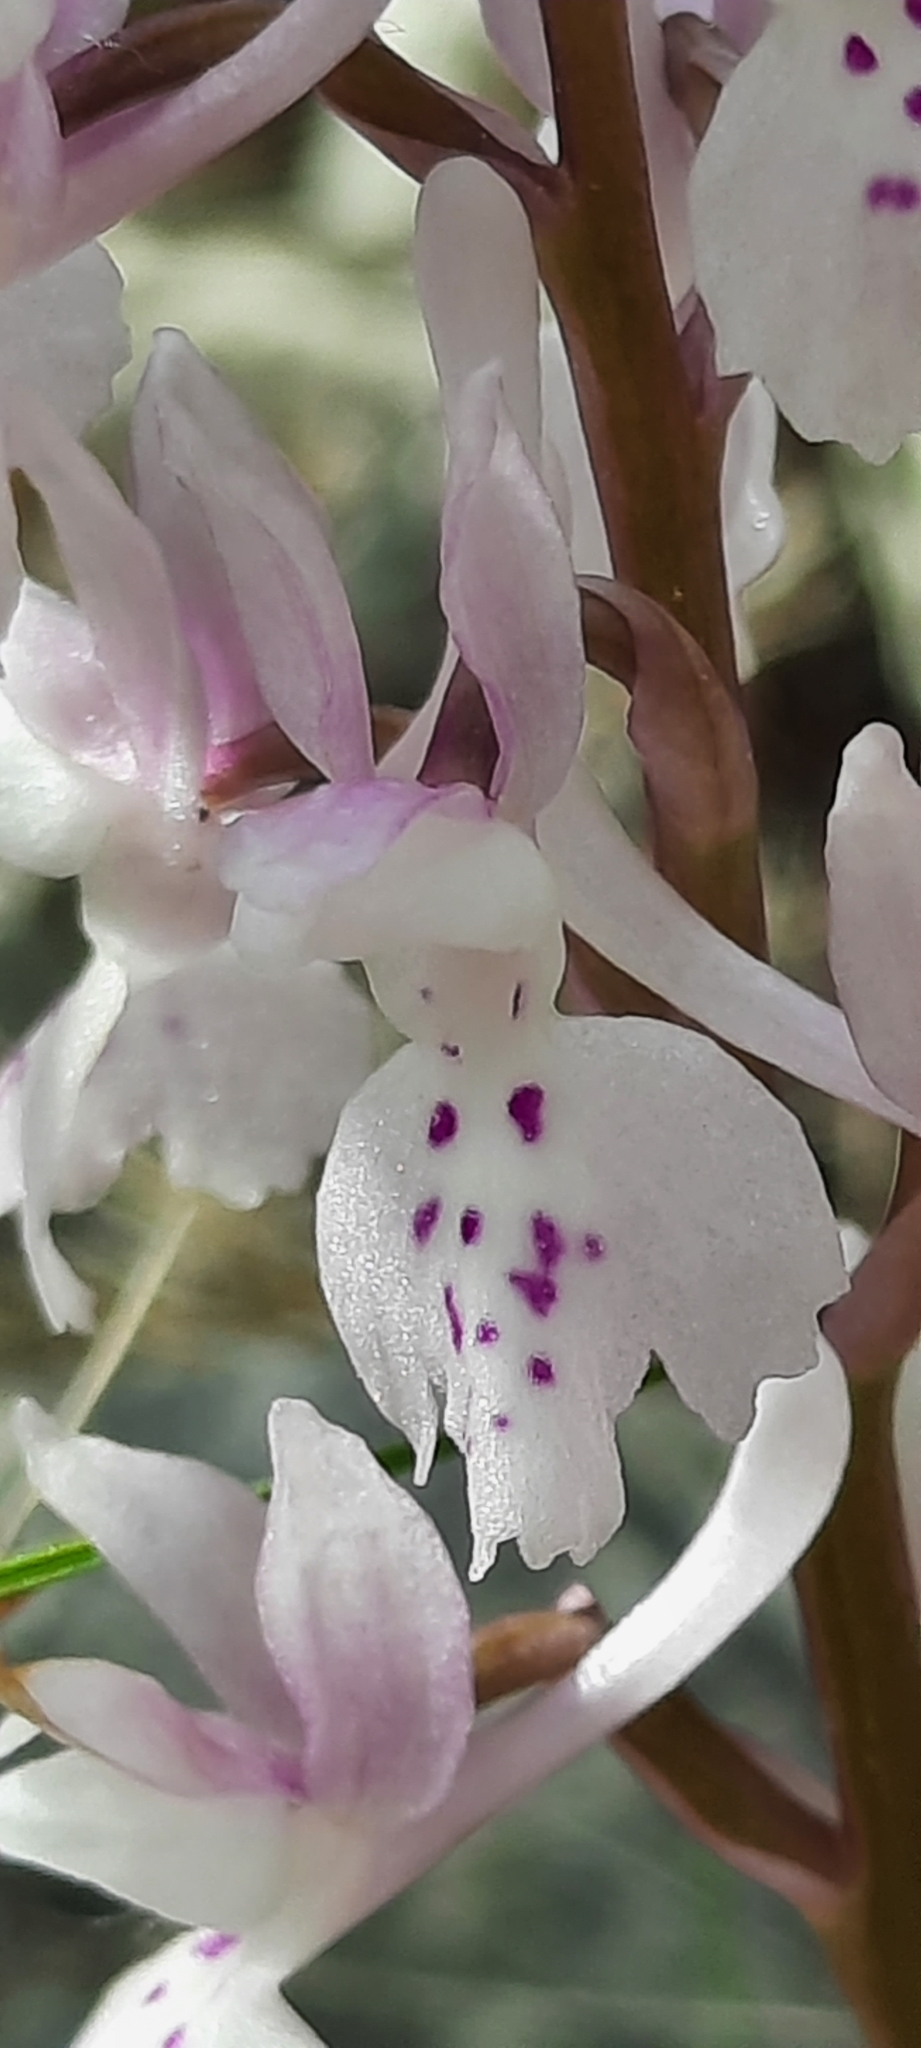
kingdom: Plantae
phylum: Tracheophyta
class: Liliopsida
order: Asparagales
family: Orchidaceae
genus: Orchis
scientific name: Orchis olbiensis
